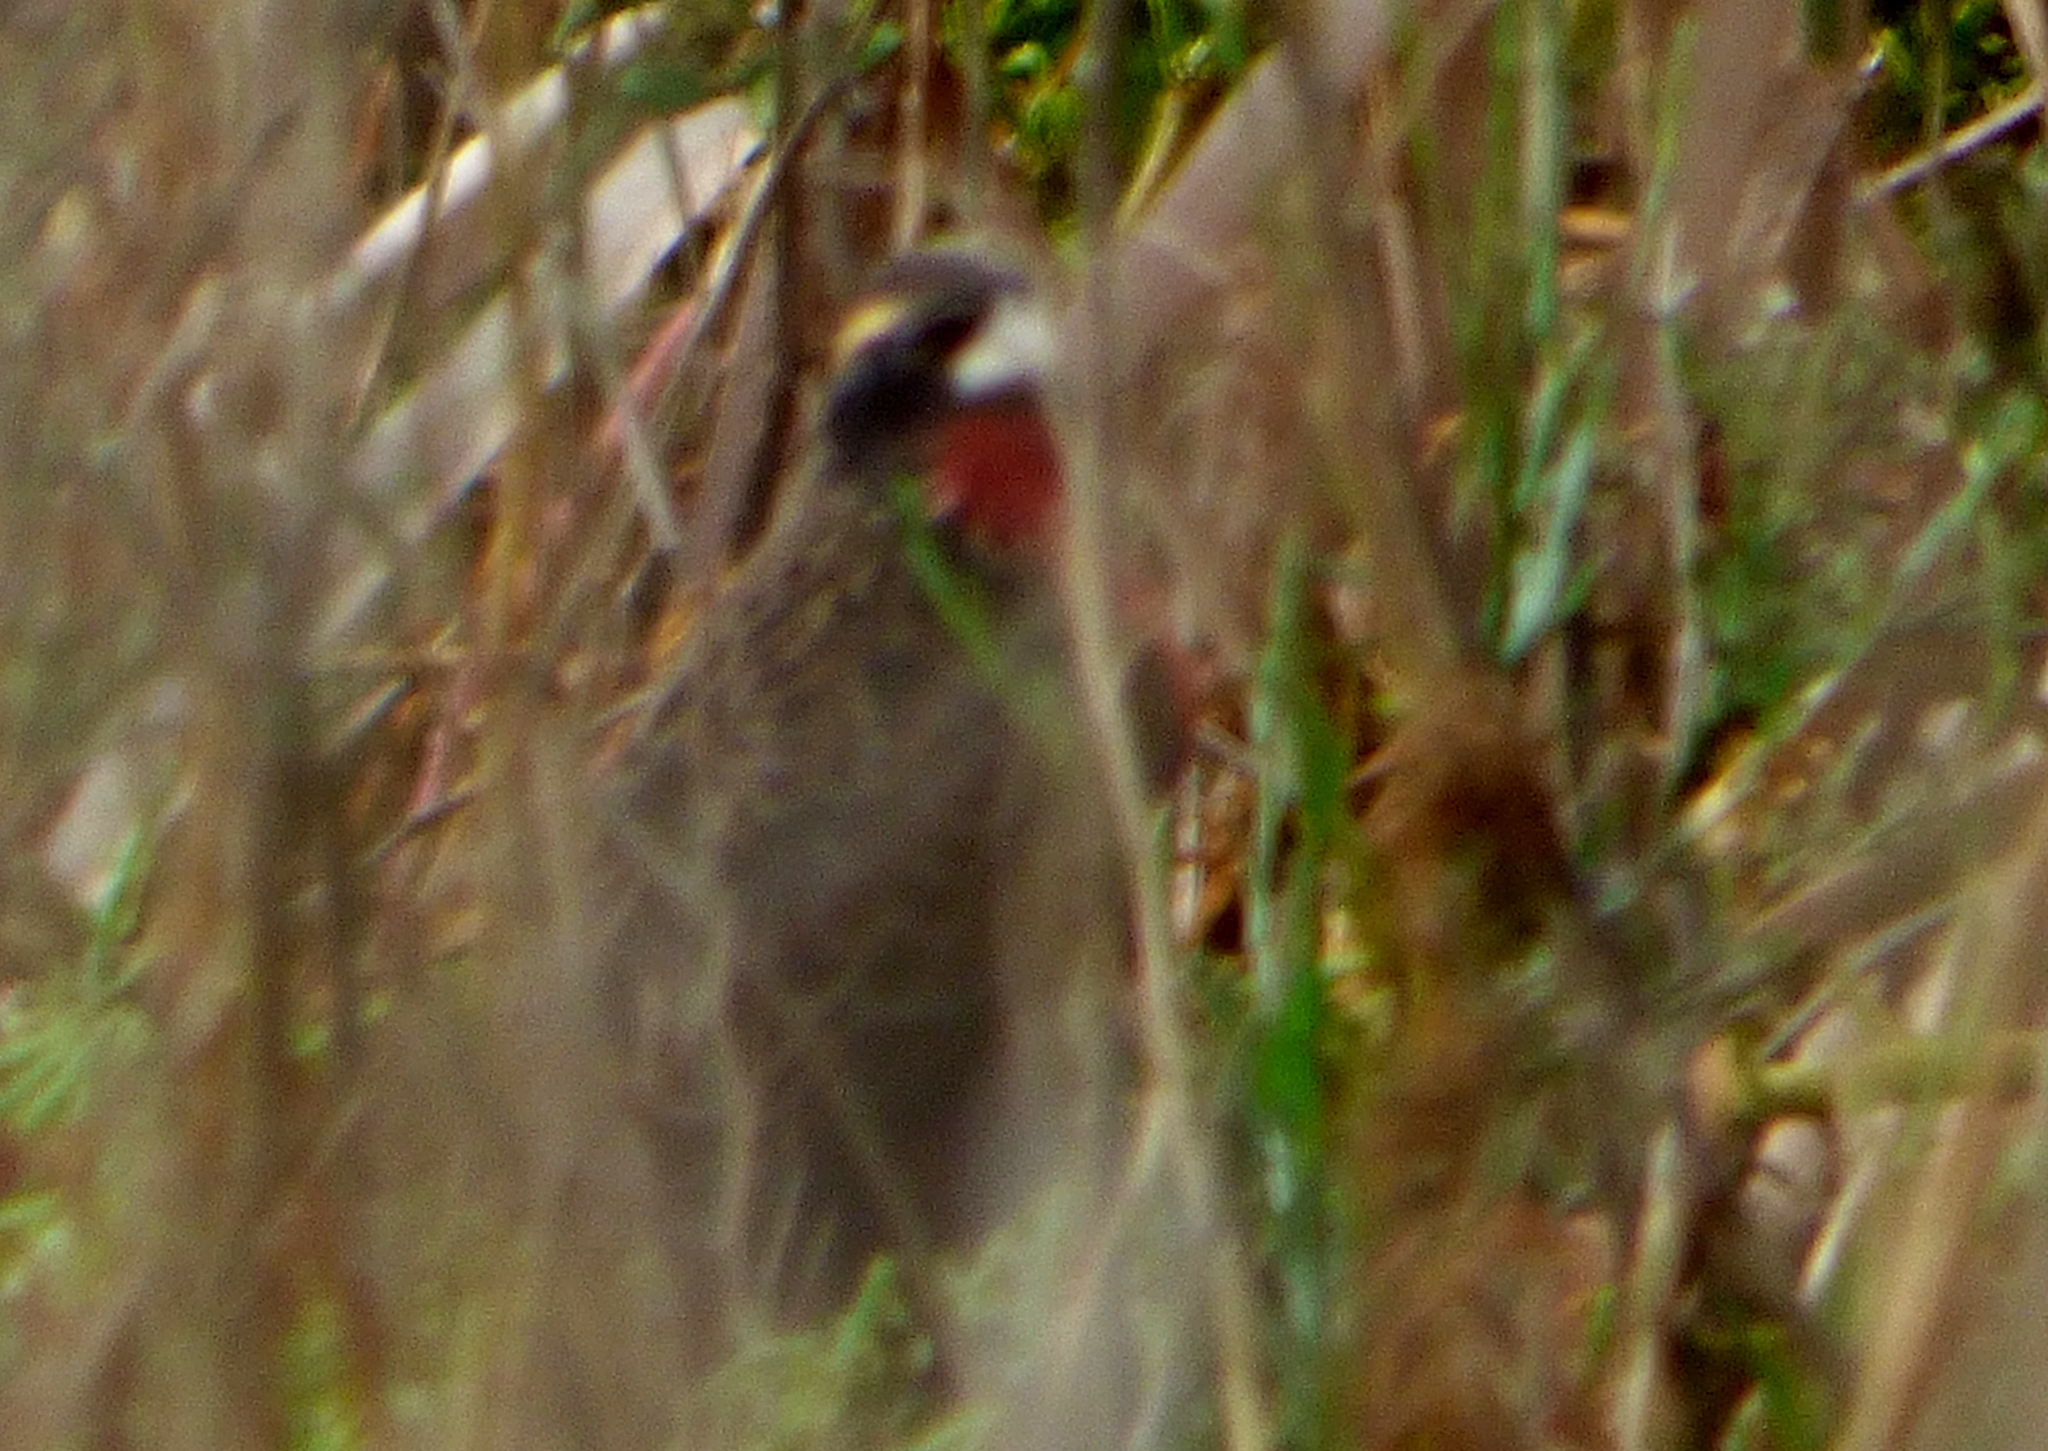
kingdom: Animalia
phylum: Chordata
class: Aves
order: Passeriformes
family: Icteridae
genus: Sturnella
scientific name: Sturnella superciliaris
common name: White-browed blackbird
